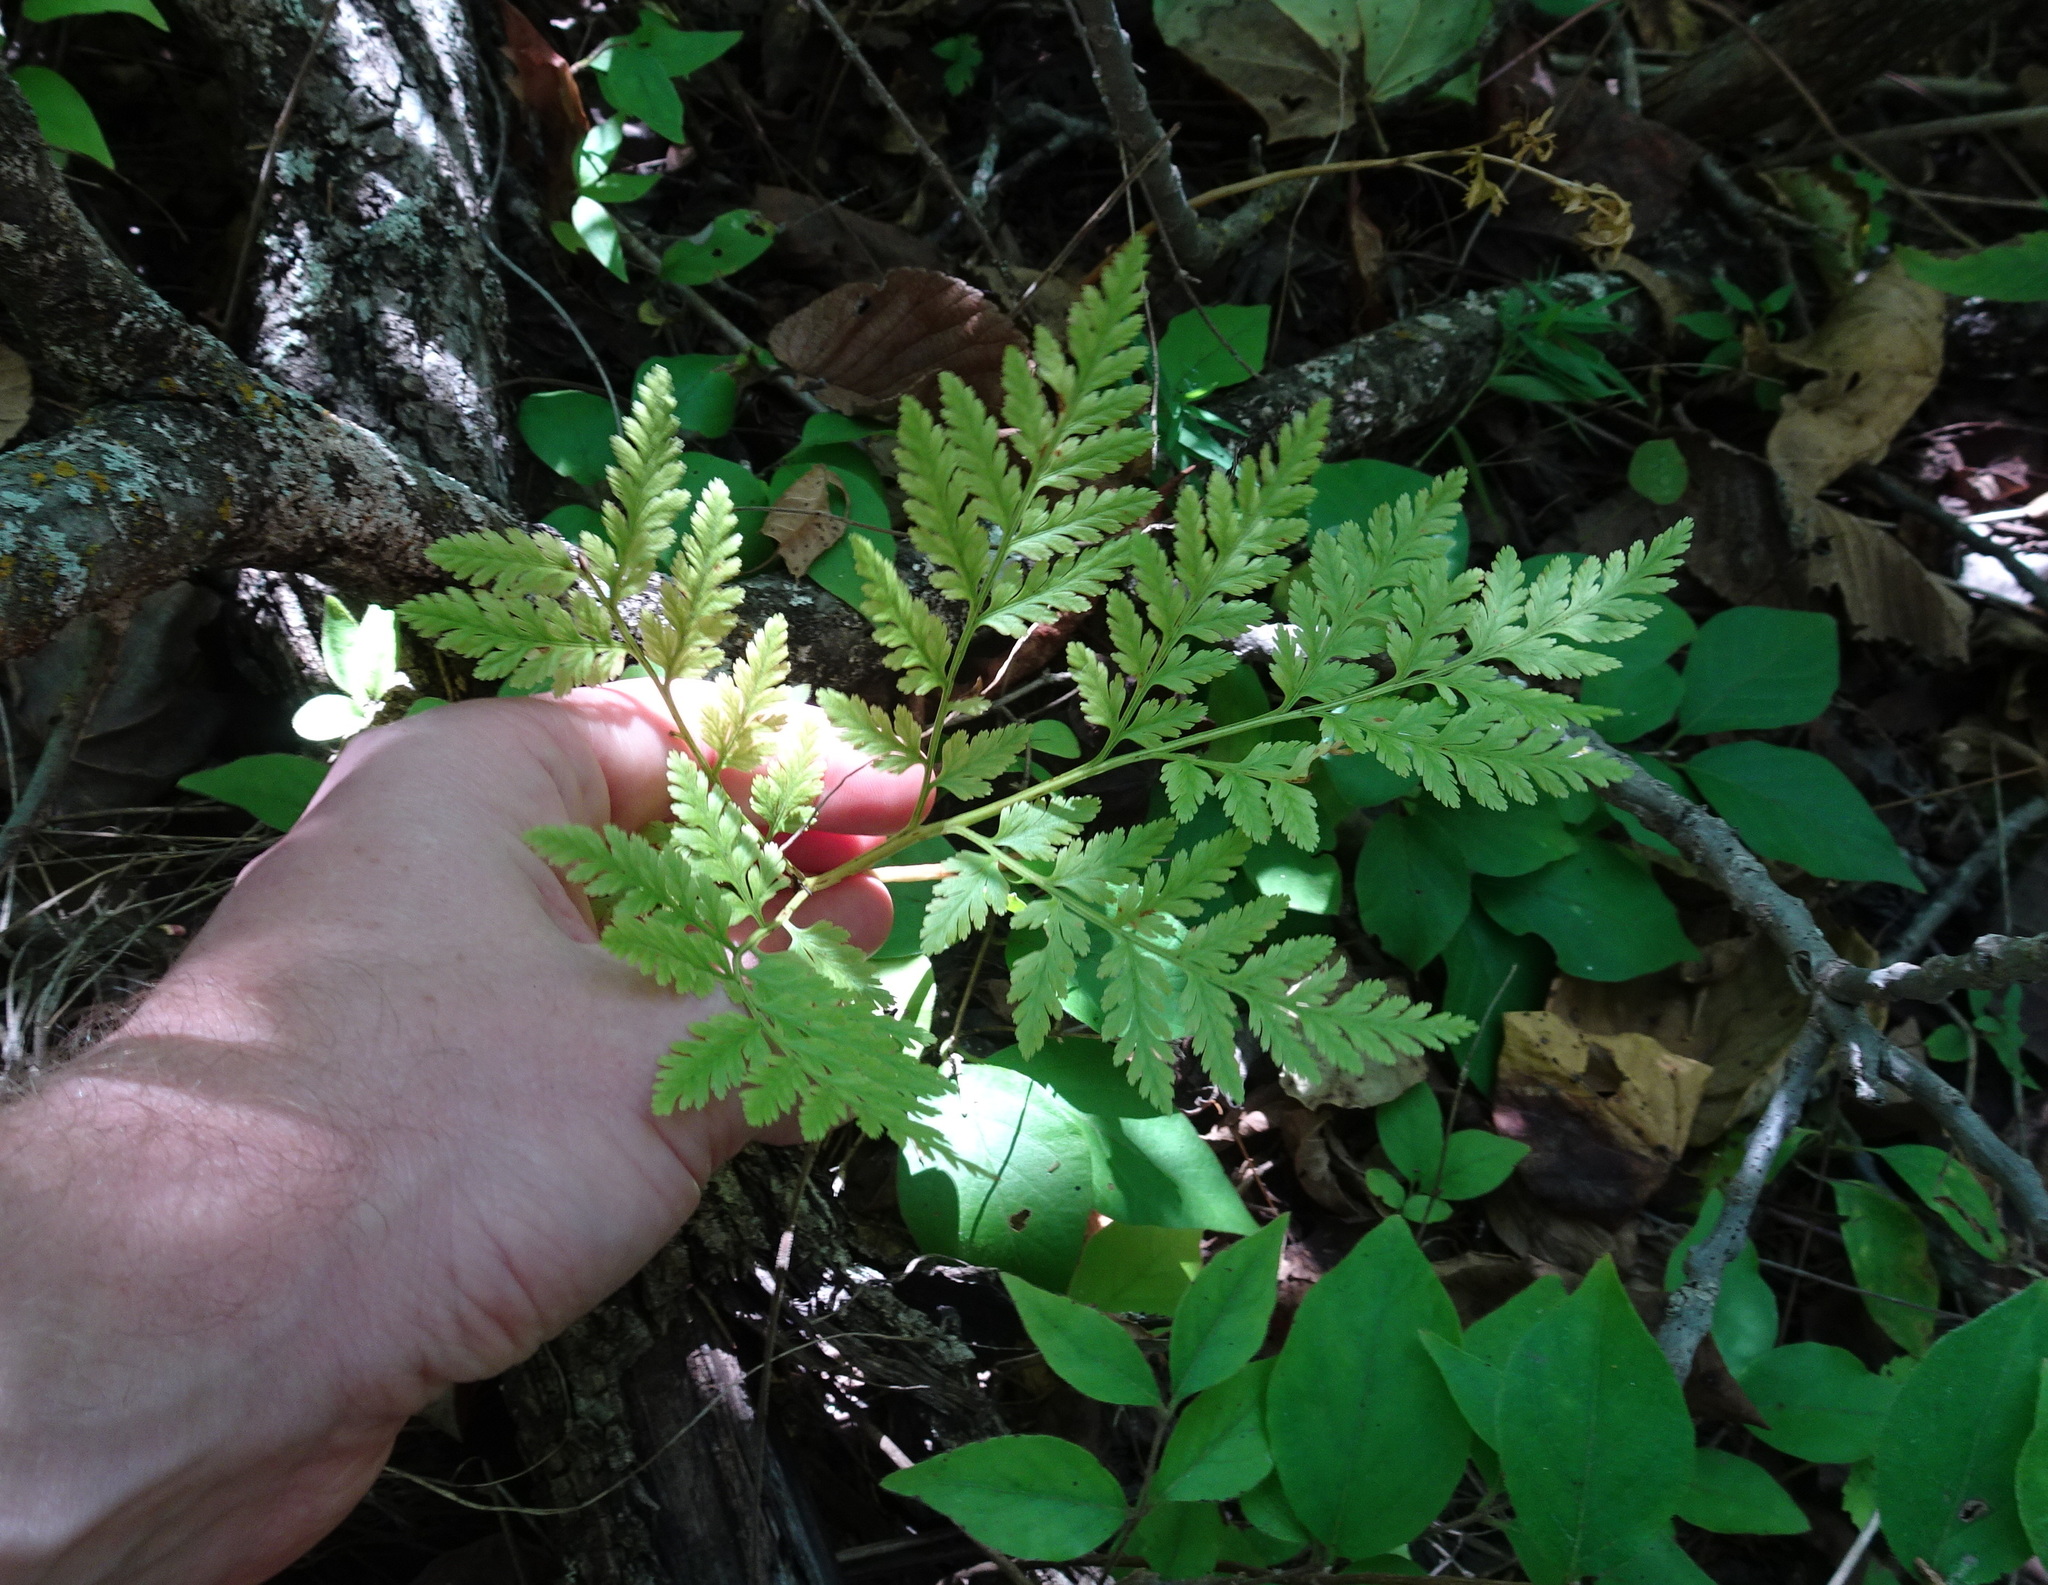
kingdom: Plantae
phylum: Tracheophyta
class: Polypodiopsida
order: Ophioglossales
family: Ophioglossaceae
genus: Botrypus
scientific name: Botrypus virginianus
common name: Common grapefern
